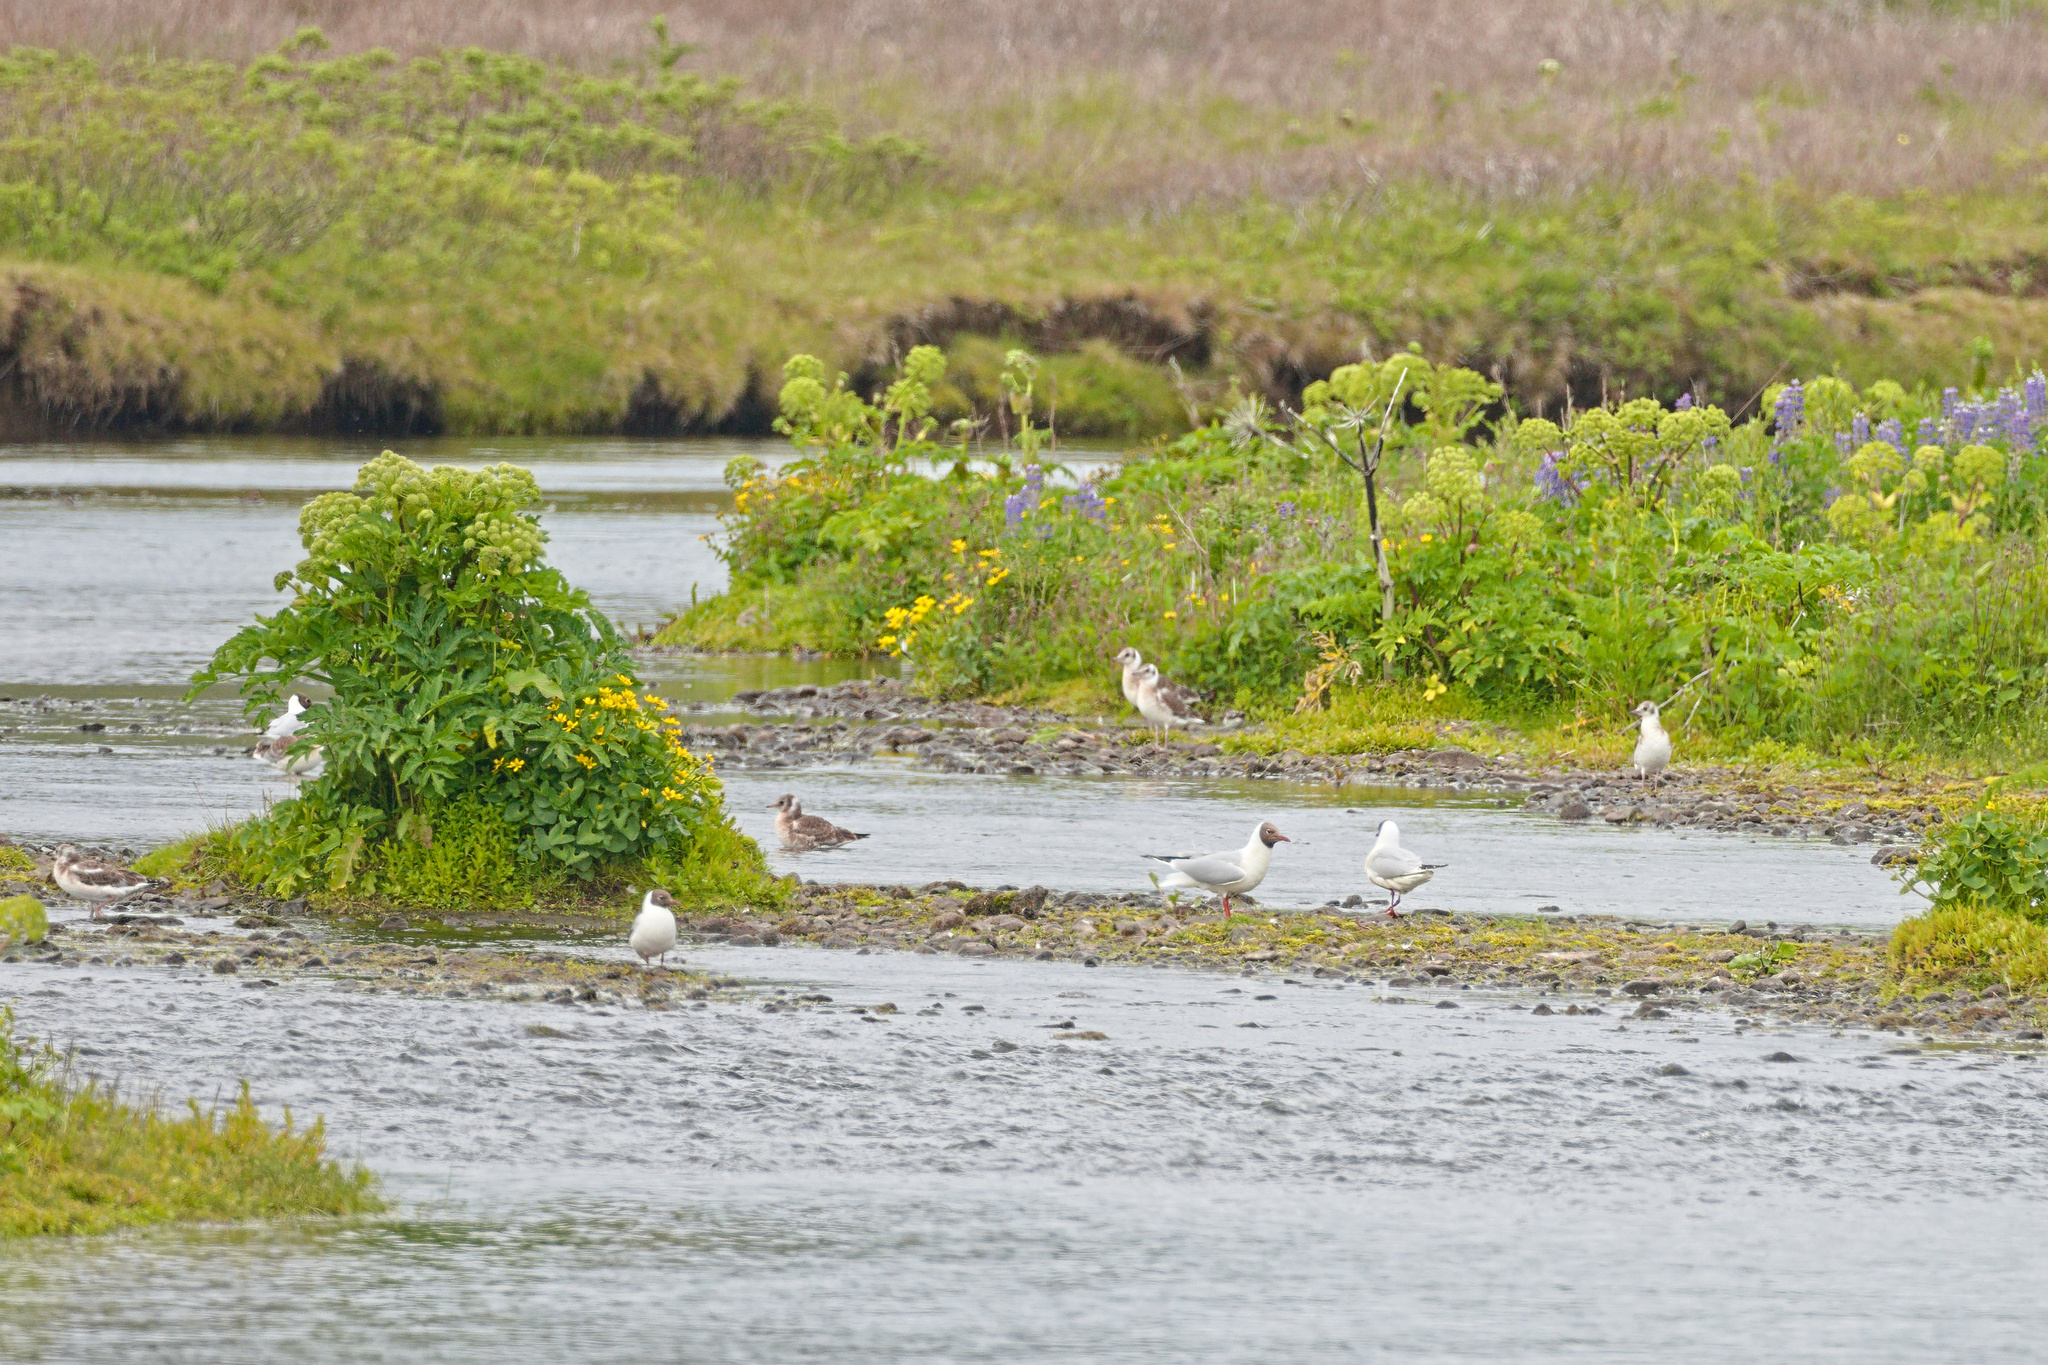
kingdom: Animalia
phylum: Chordata
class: Aves
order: Charadriiformes
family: Laridae
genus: Chroicocephalus
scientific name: Chroicocephalus ridibundus
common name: Black-headed gull
